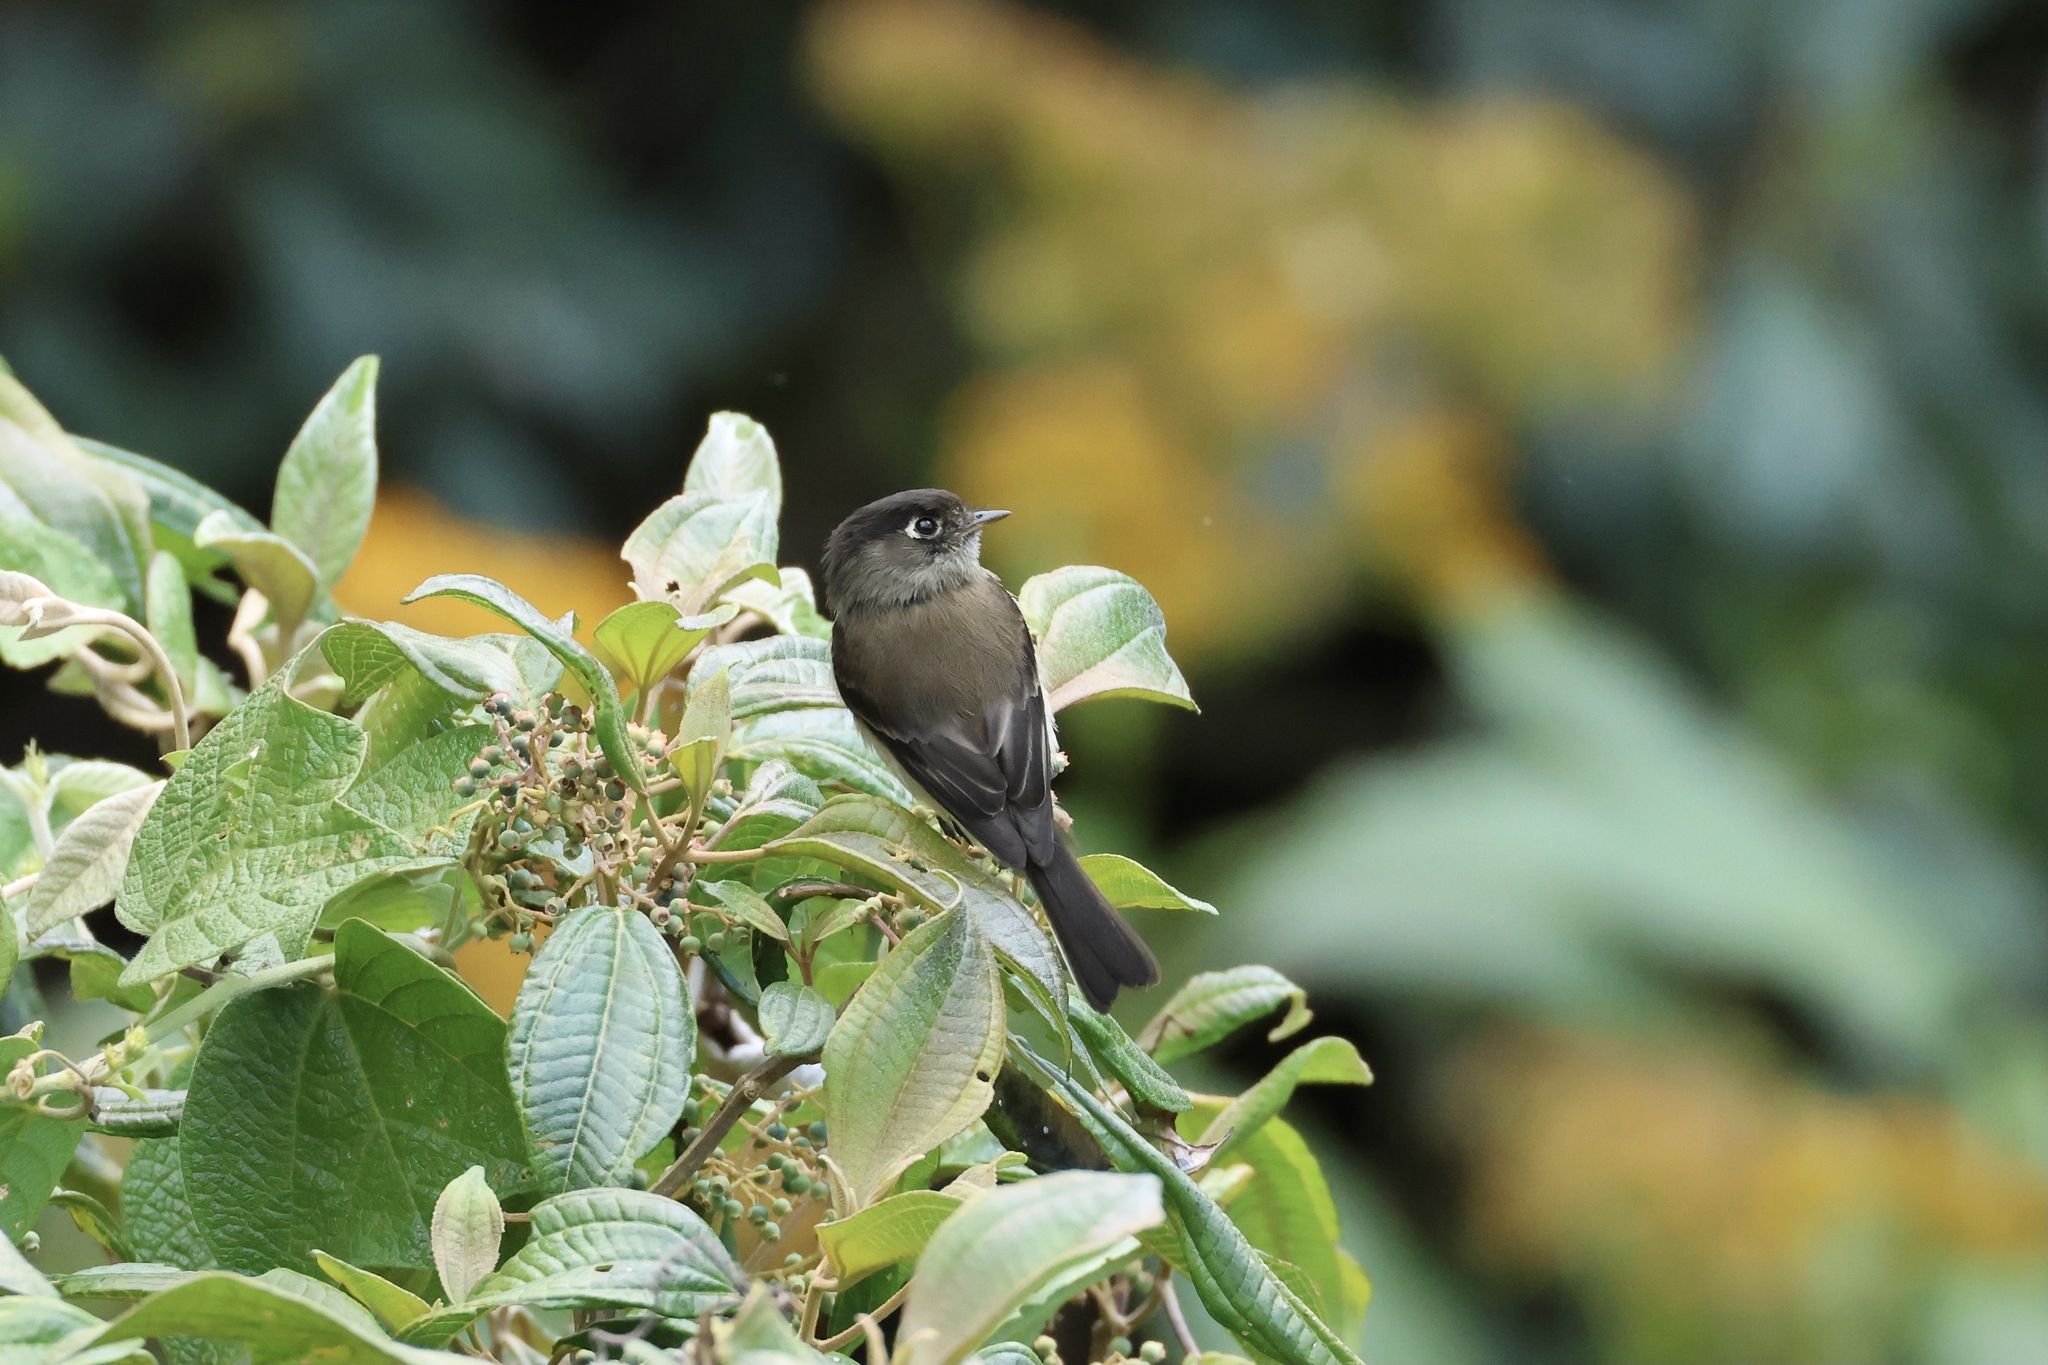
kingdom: Animalia
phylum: Chordata
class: Aves
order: Passeriformes
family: Tyrannidae
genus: Empidonax
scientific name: Empidonax atriceps
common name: Black-capped flycatcher
